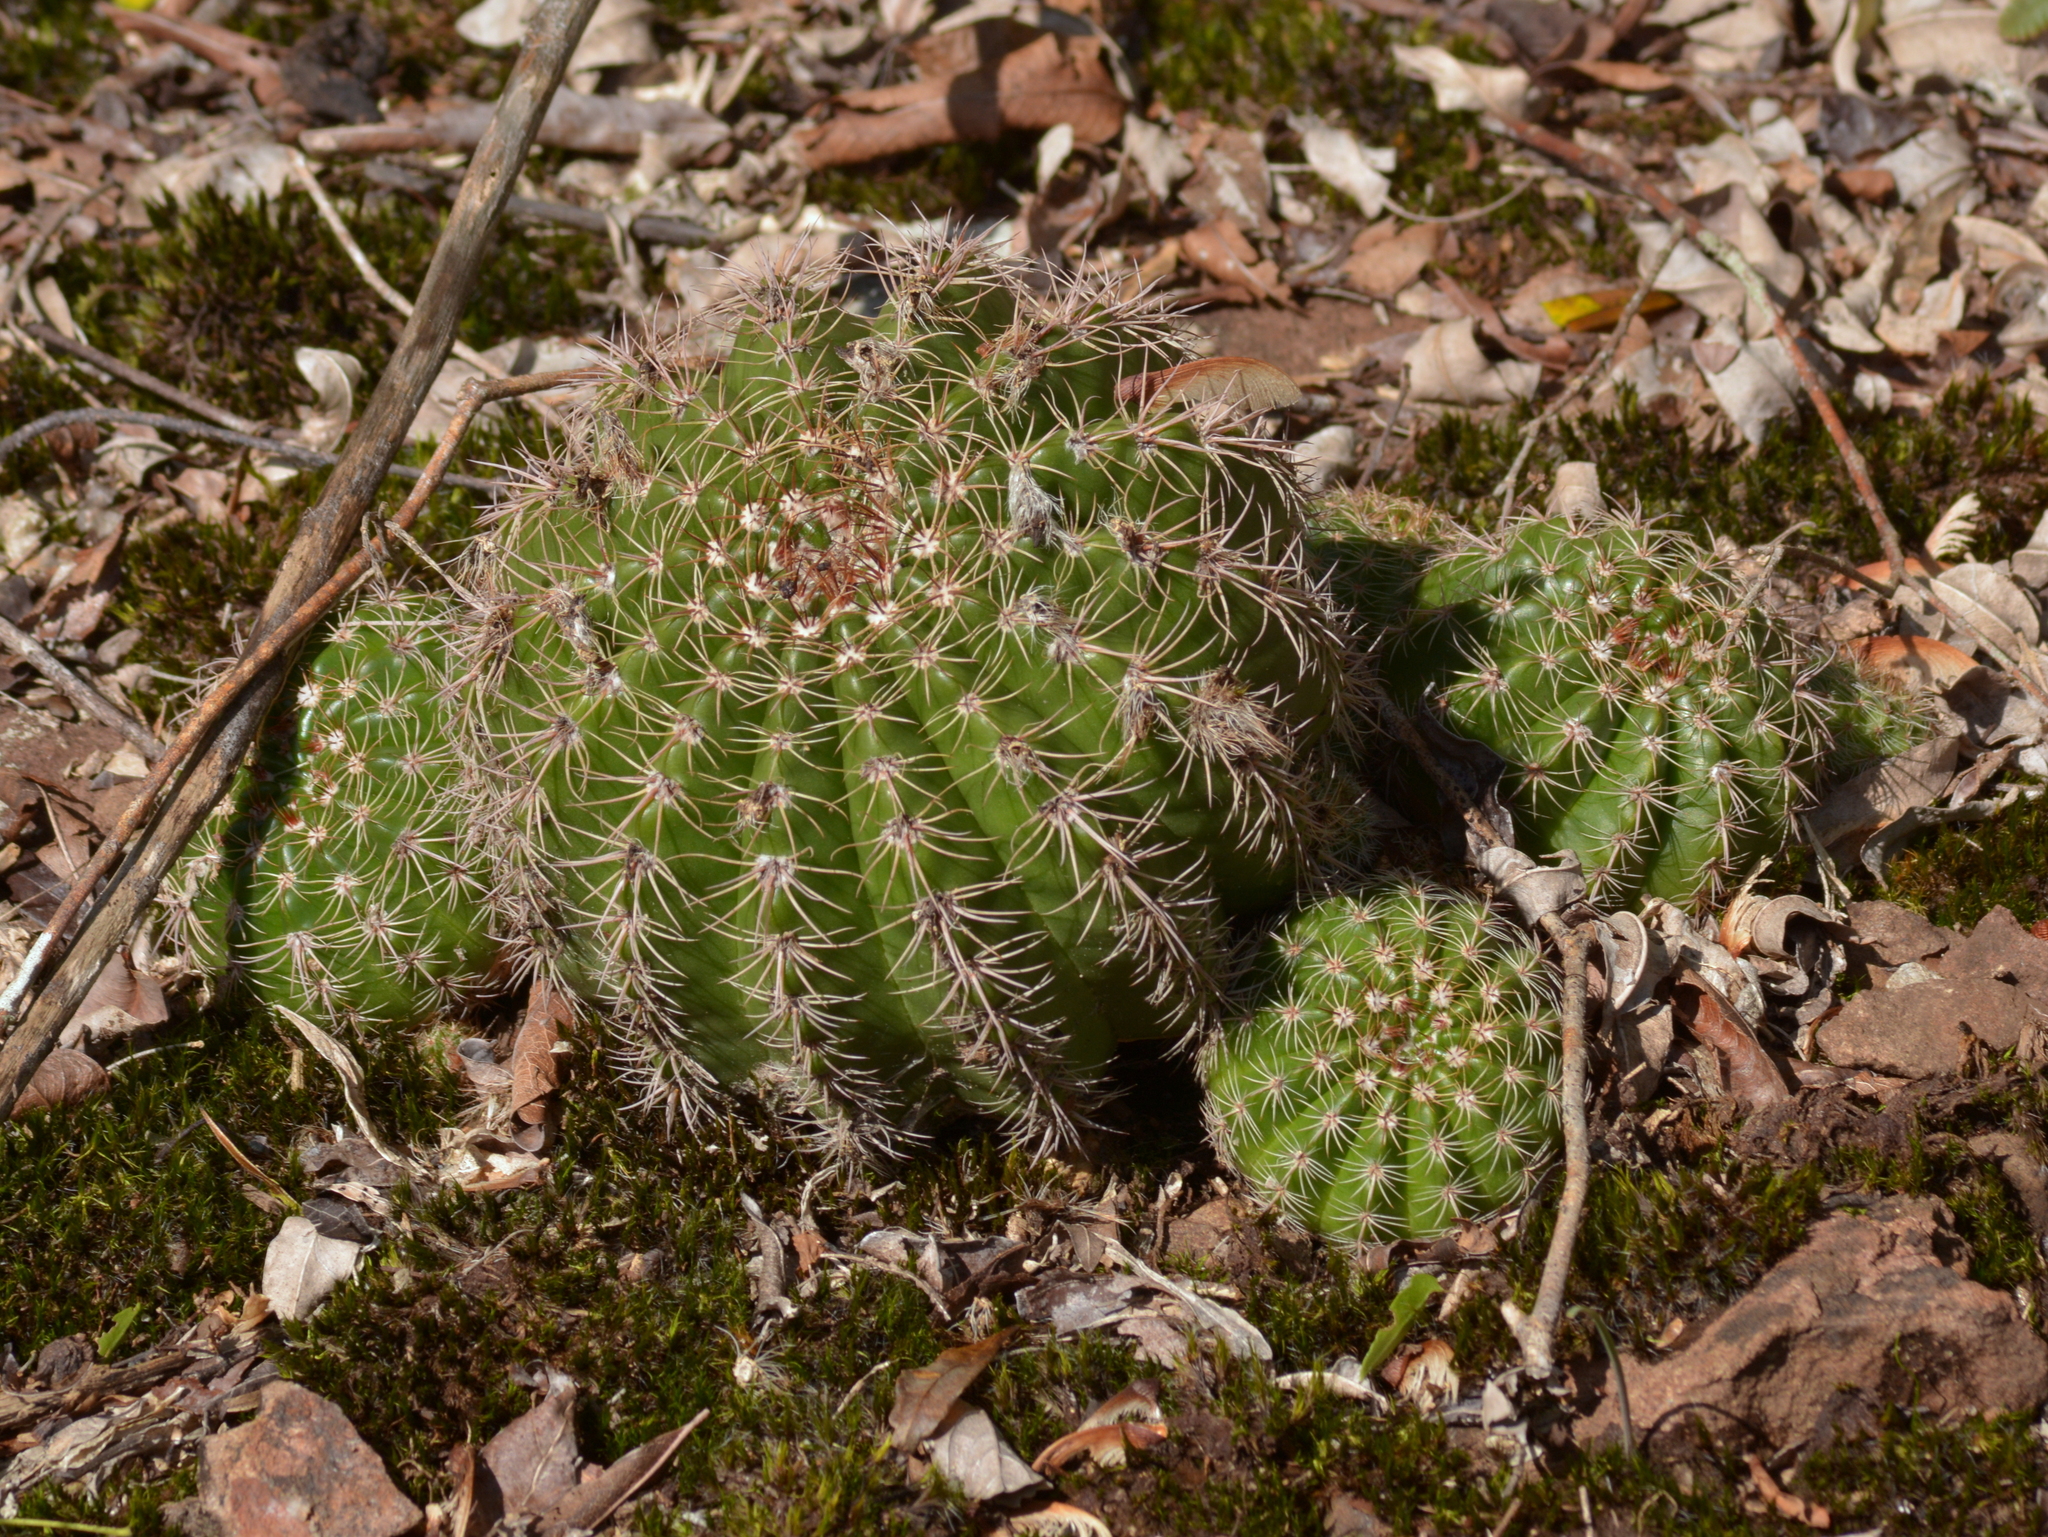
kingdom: Plantae
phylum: Tracheophyta
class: Magnoliopsida
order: Caryophyllales
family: Cactaceae
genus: Parodia
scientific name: Parodia linkii
